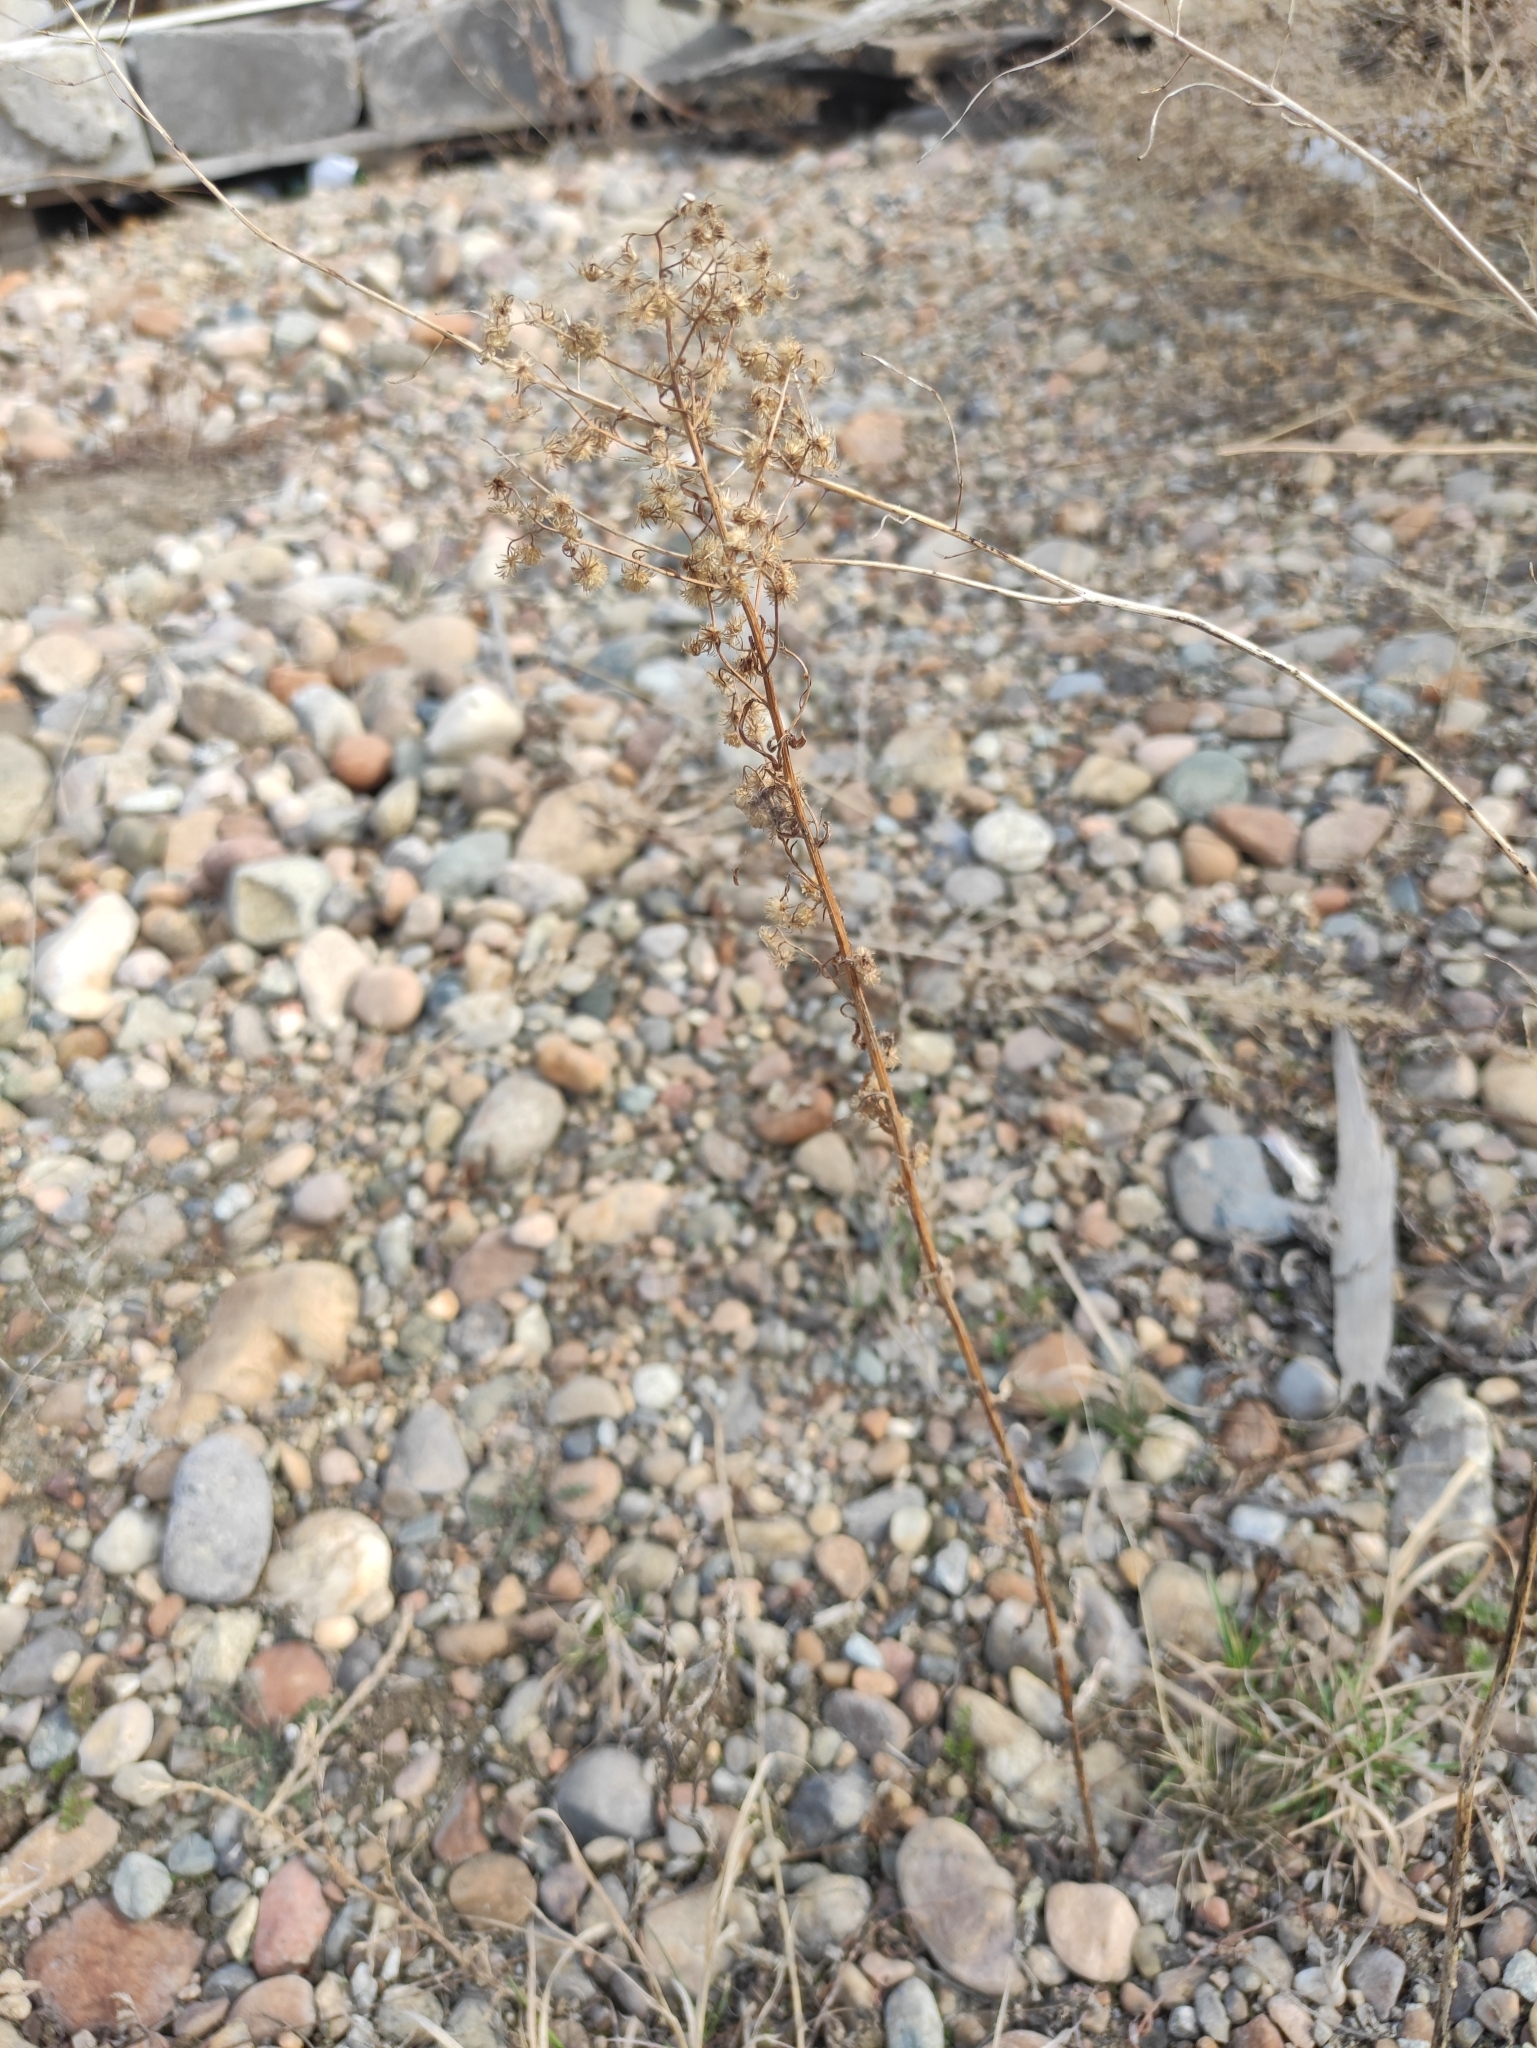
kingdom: Plantae
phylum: Tracheophyta
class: Magnoliopsida
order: Asterales
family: Asteraceae
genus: Erigeron
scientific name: Erigeron canadensis
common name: Canadian fleabane
